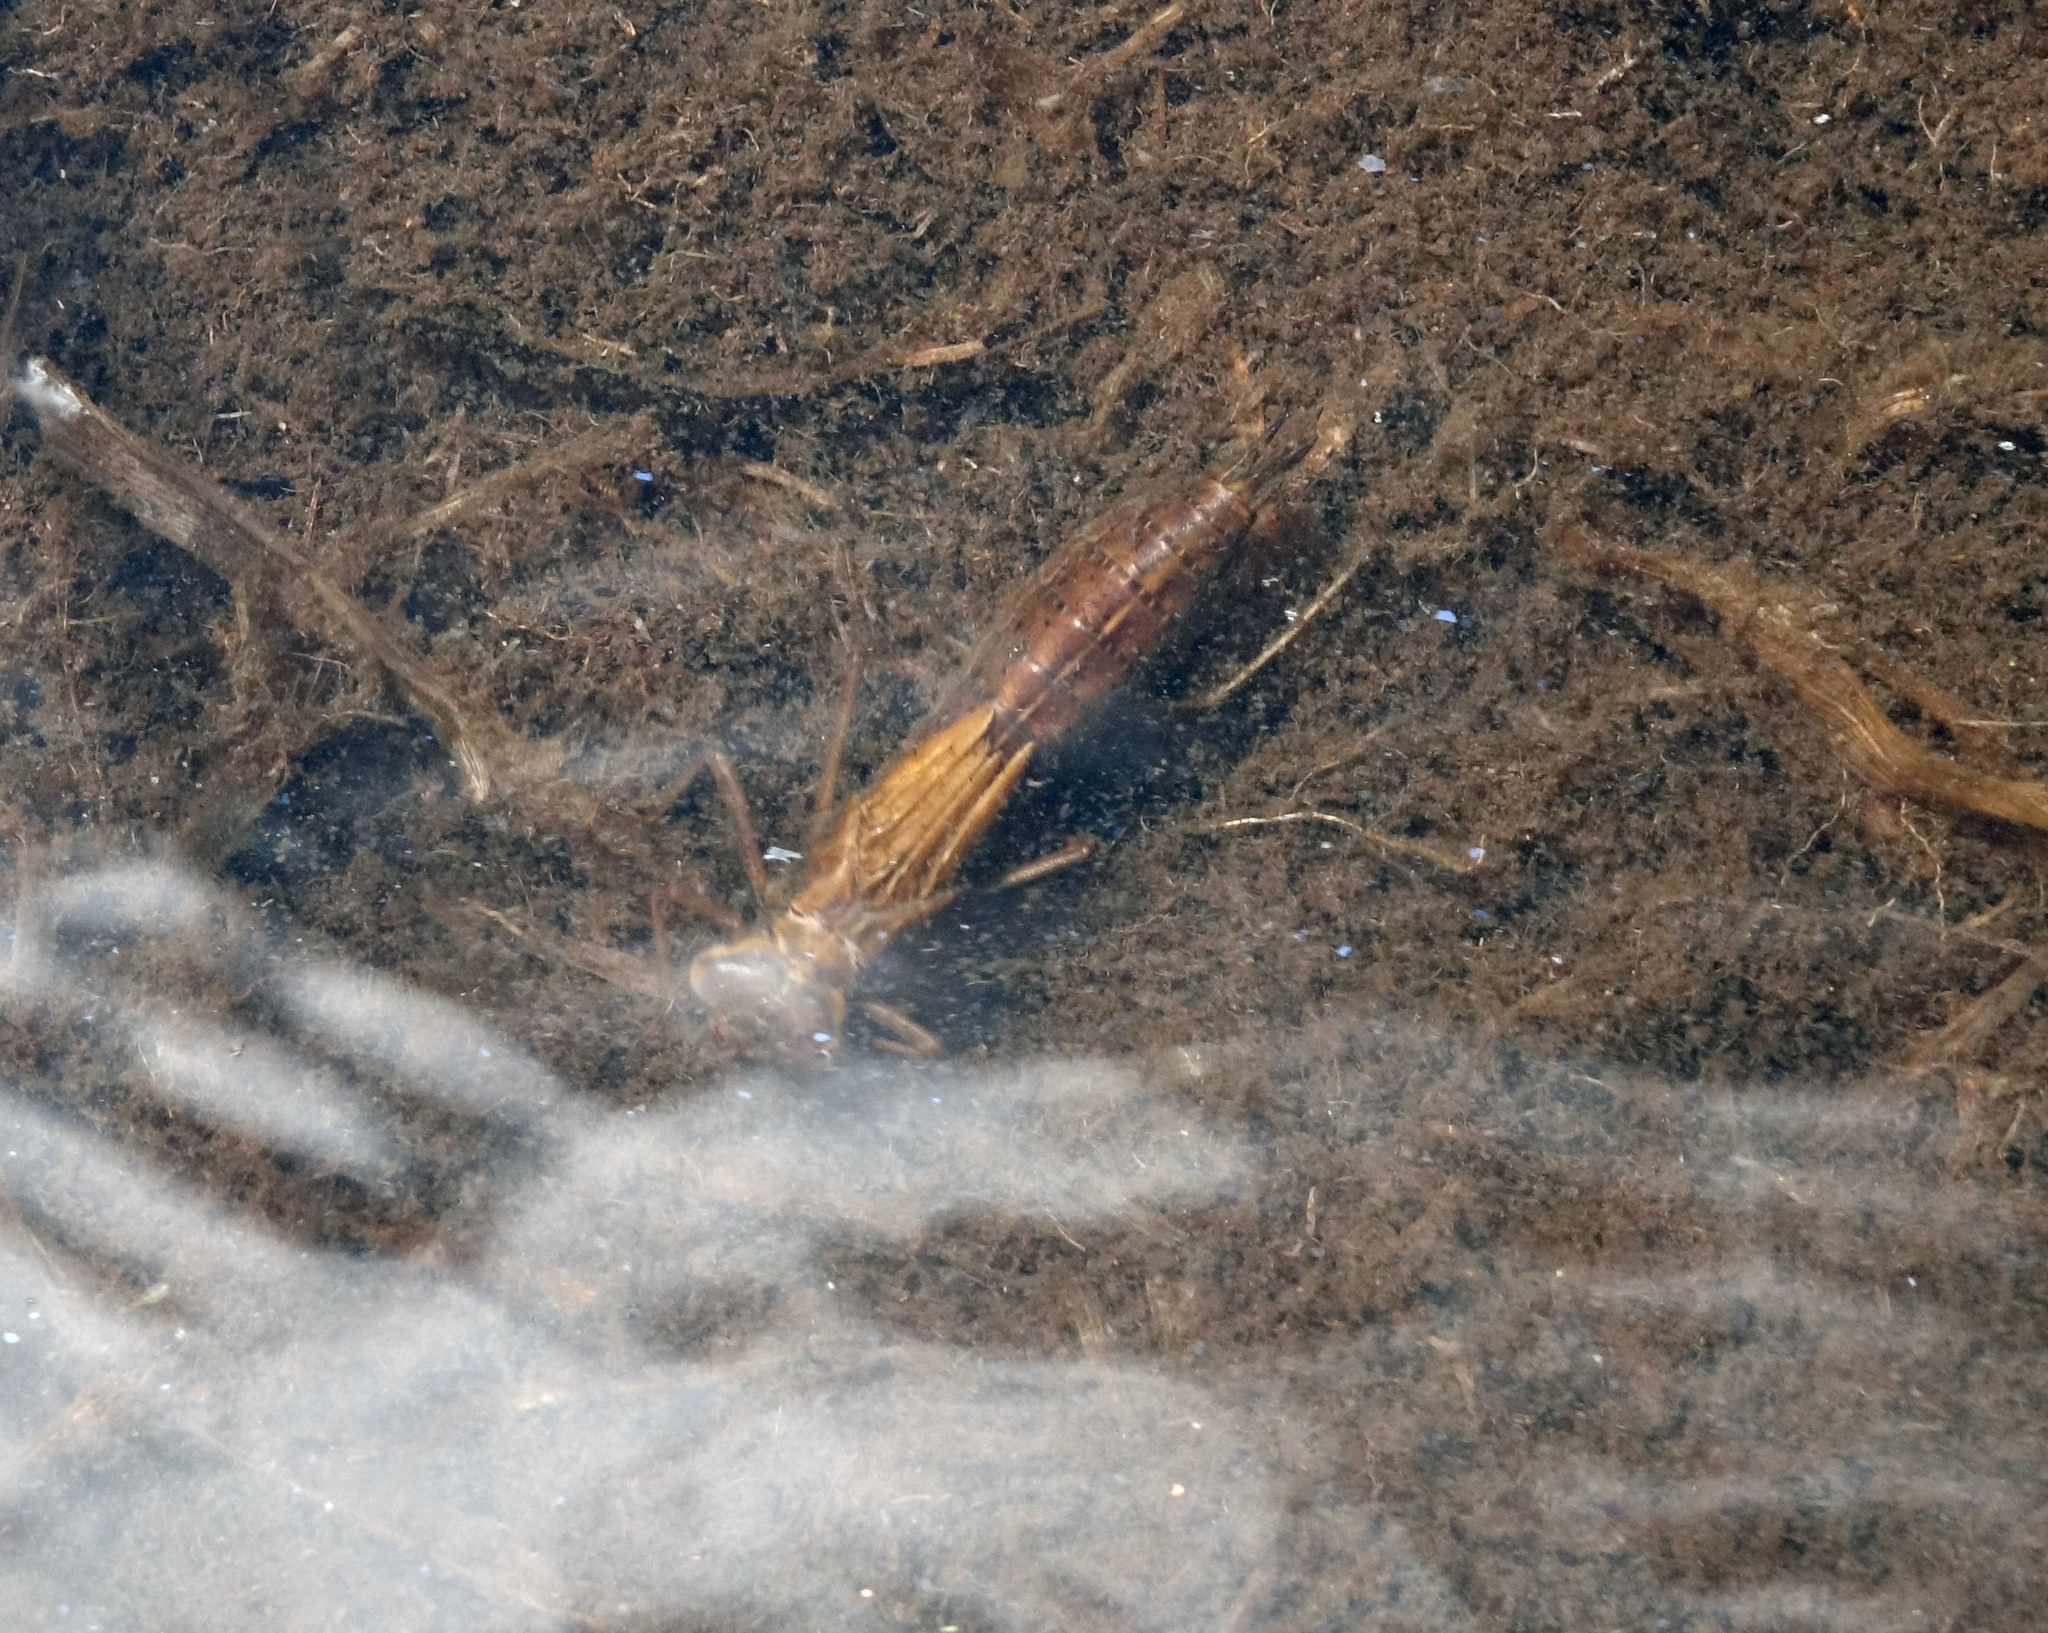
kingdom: Animalia
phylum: Arthropoda
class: Insecta
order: Odonata
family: Aeshnidae
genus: Aeshna
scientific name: Aeshna juncea
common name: Moorland hawker
